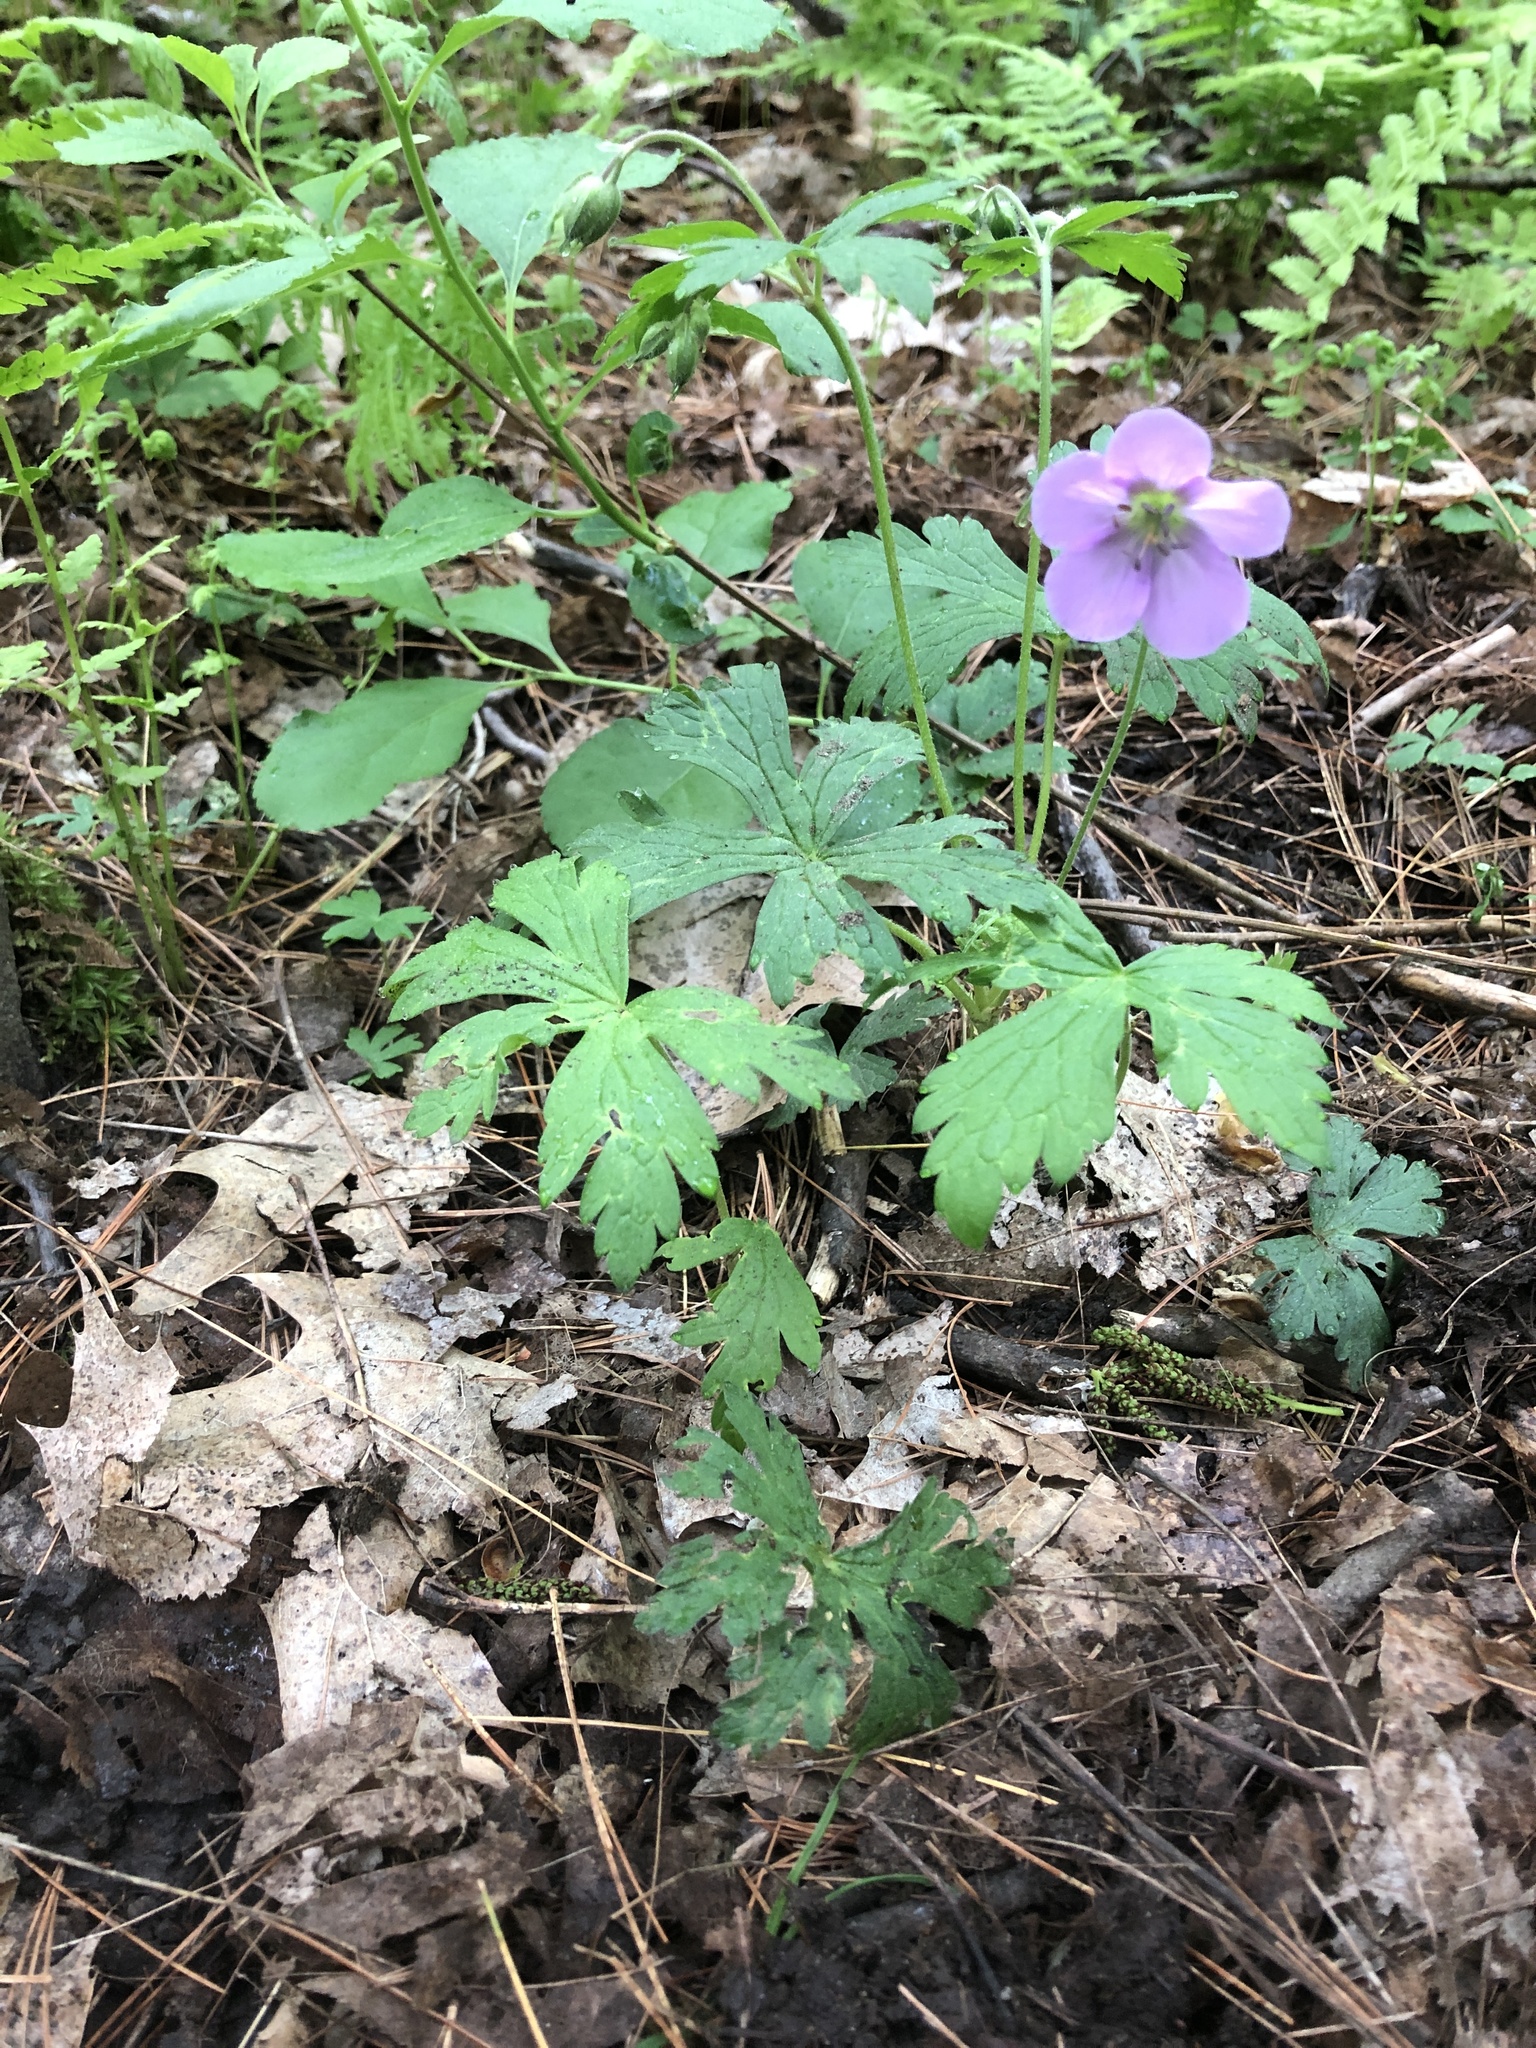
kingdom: Plantae
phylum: Tracheophyta
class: Magnoliopsida
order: Geraniales
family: Geraniaceae
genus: Geranium
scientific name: Geranium maculatum
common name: Spotted geranium
